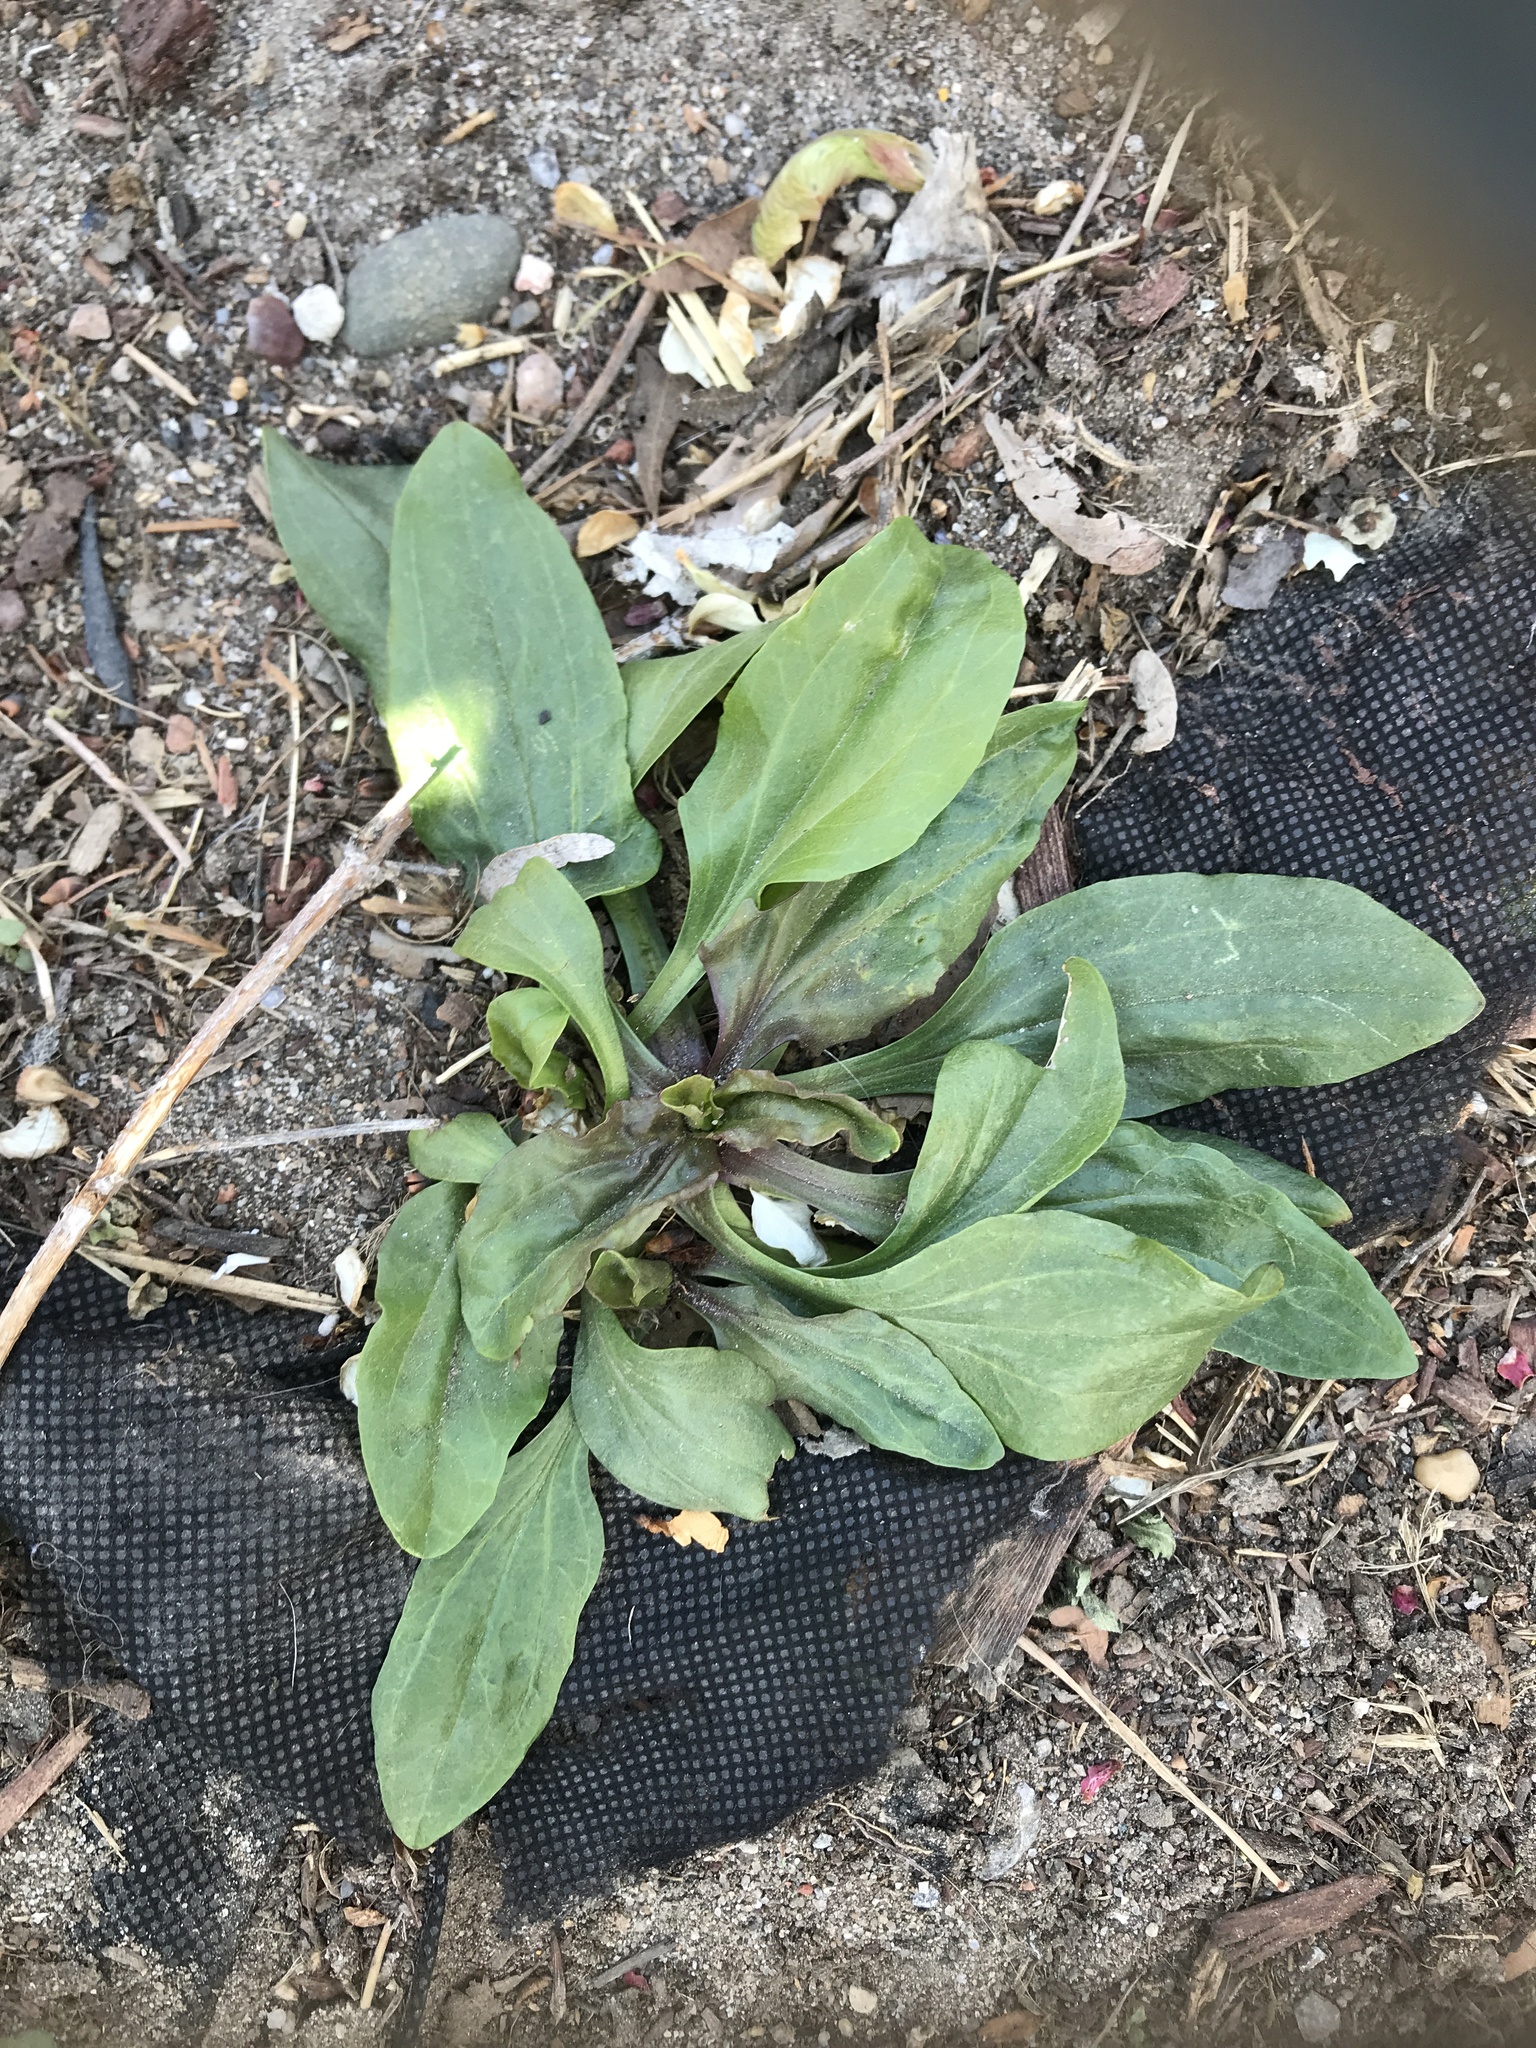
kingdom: Plantae
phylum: Tracheophyta
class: Magnoliopsida
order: Lamiales
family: Plantaginaceae
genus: Plantago
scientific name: Plantago rugelii
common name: American plantain
